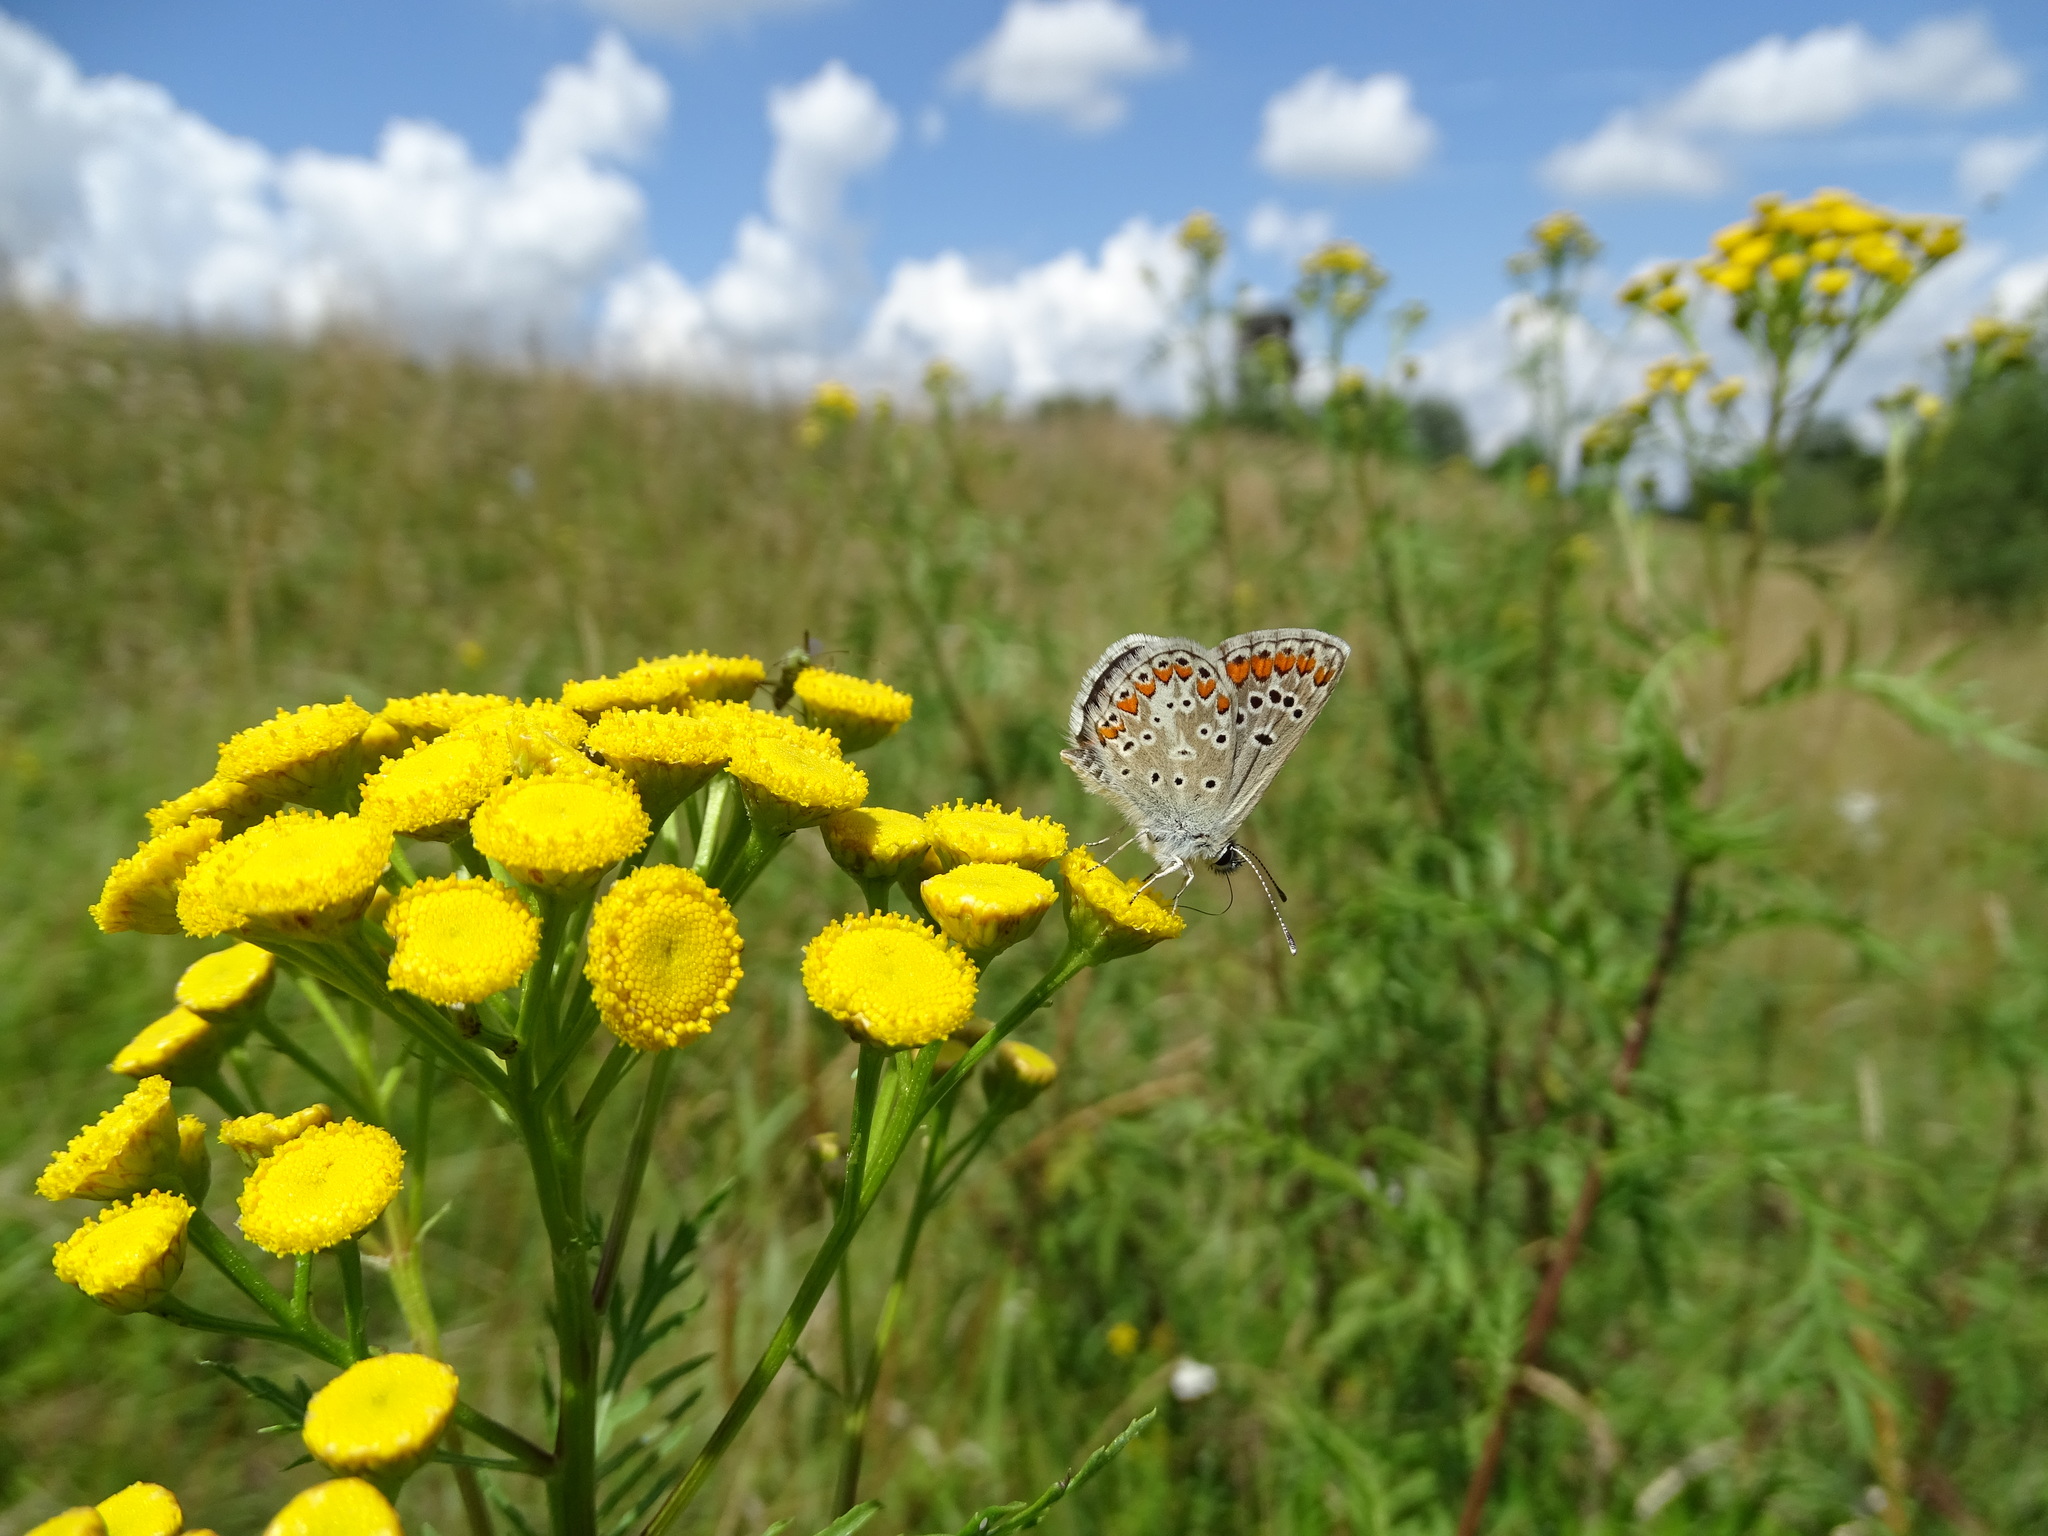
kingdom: Animalia
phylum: Arthropoda
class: Insecta
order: Lepidoptera
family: Lycaenidae
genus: Aricia
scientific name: Aricia agestis
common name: Brown argus
